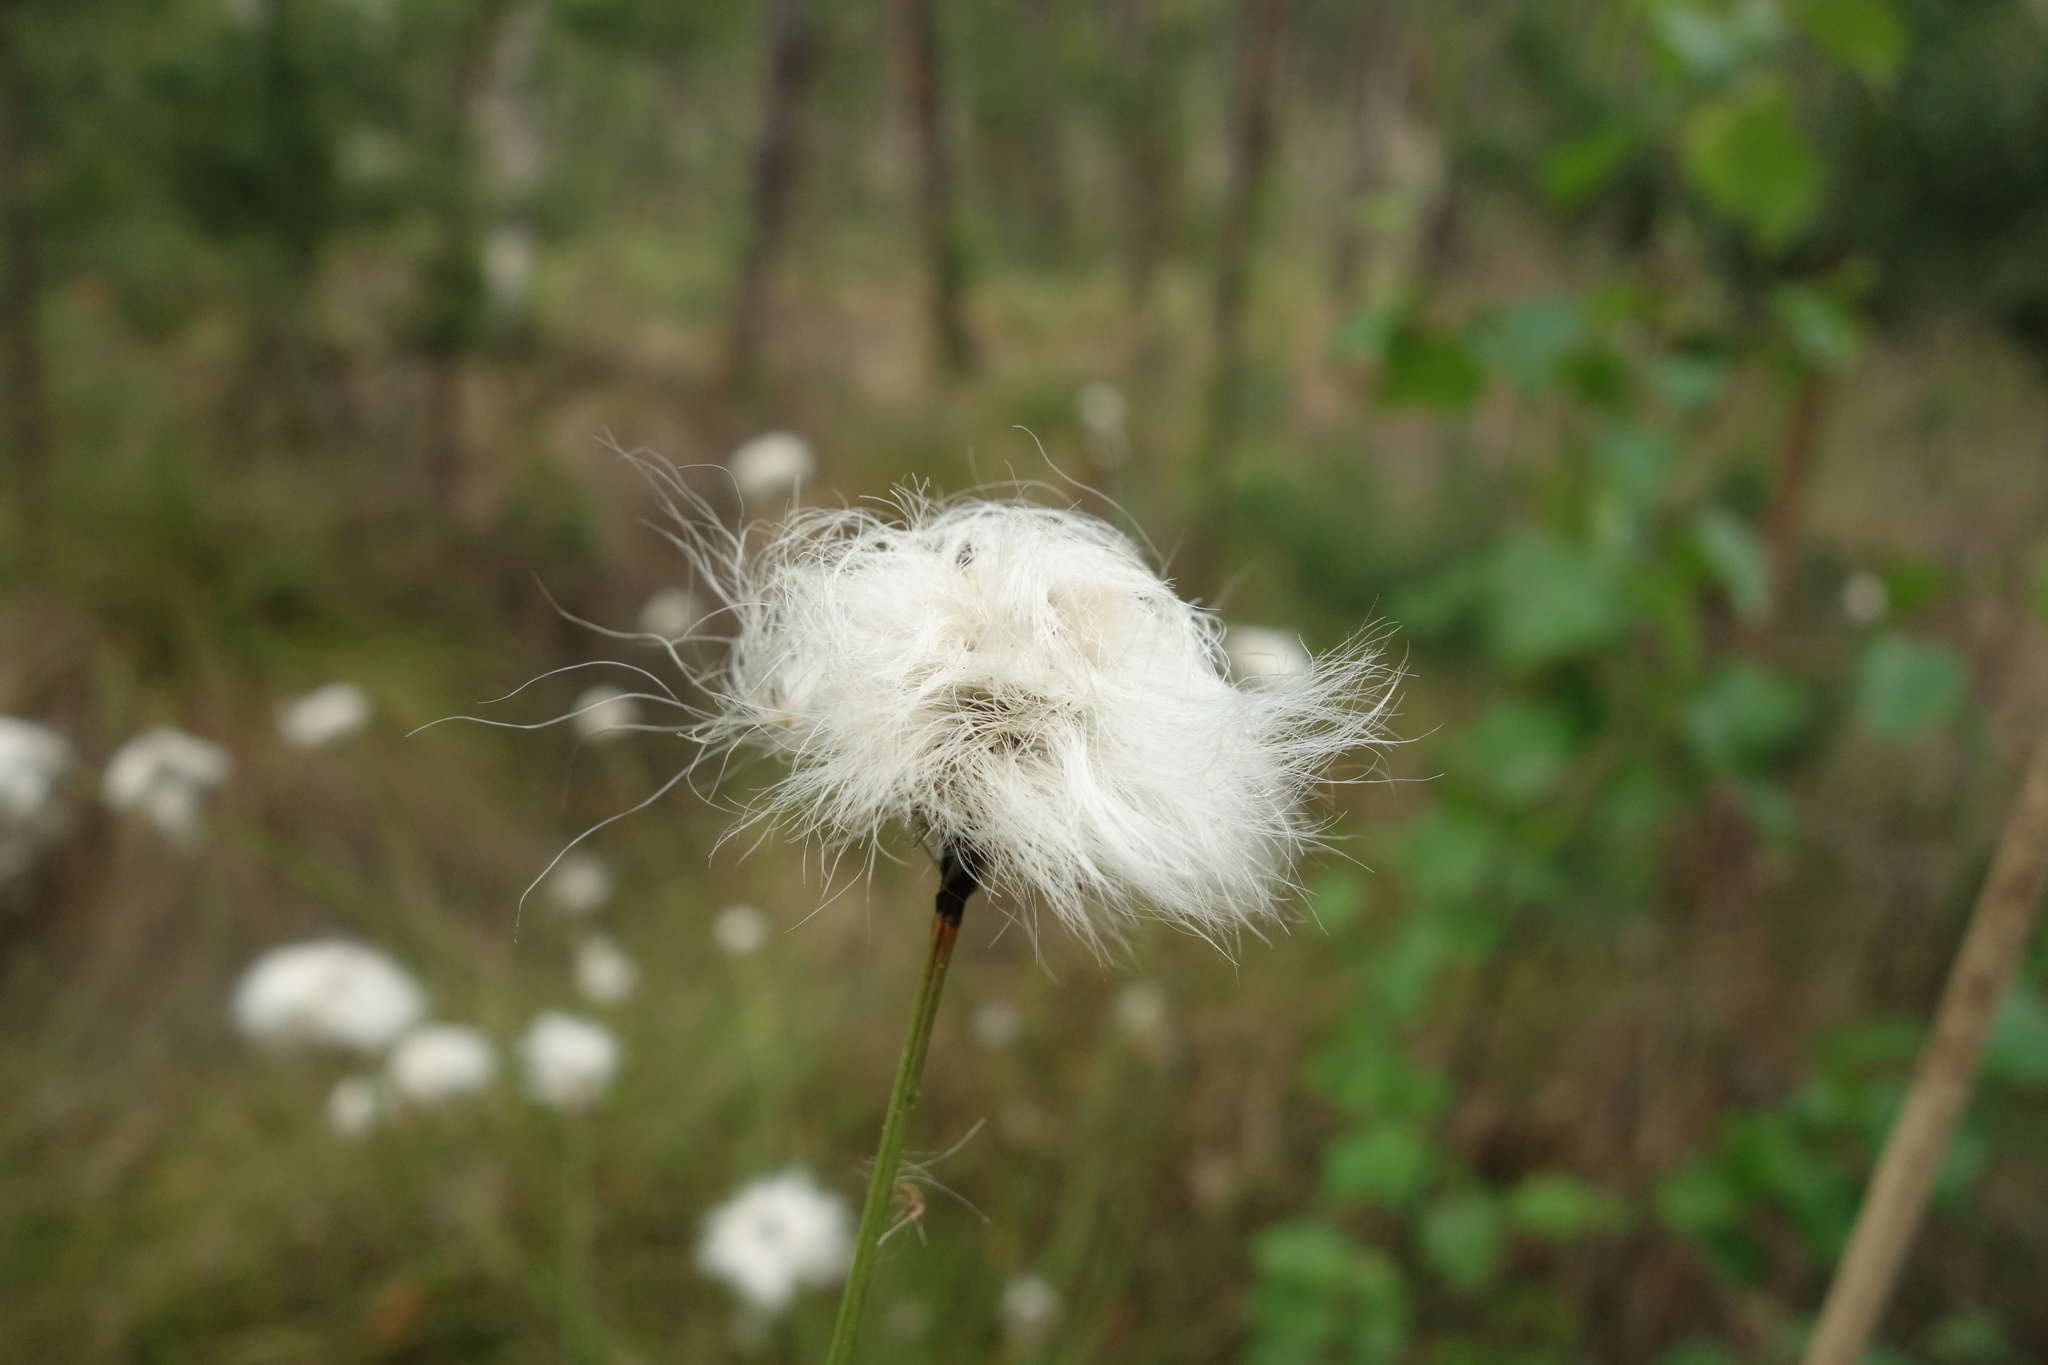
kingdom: Plantae
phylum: Tracheophyta
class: Liliopsida
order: Poales
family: Cyperaceae
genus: Eriophorum
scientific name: Eriophorum vaginatum
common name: Hare's-tail cottongrass
